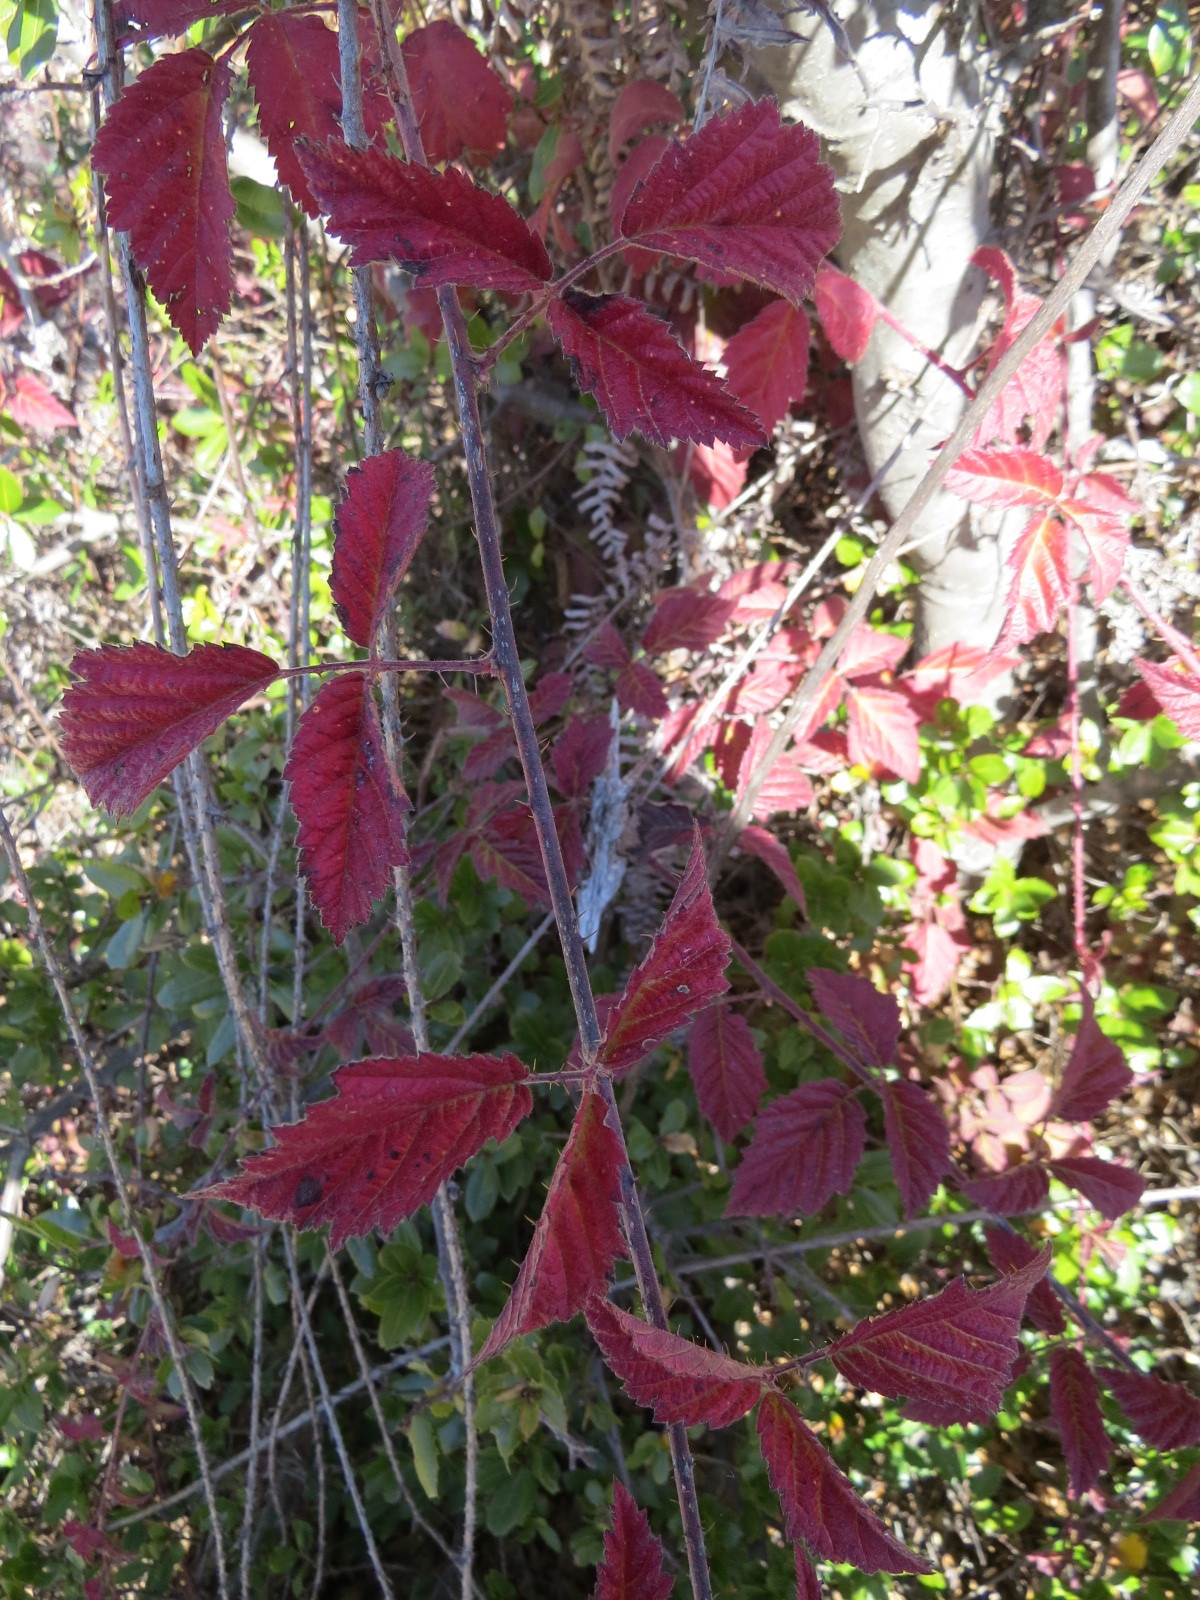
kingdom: Plantae
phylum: Tracheophyta
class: Magnoliopsida
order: Rosales
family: Rosaceae
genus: Rubus
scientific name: Rubus ursinus
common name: Pacific blackberry
